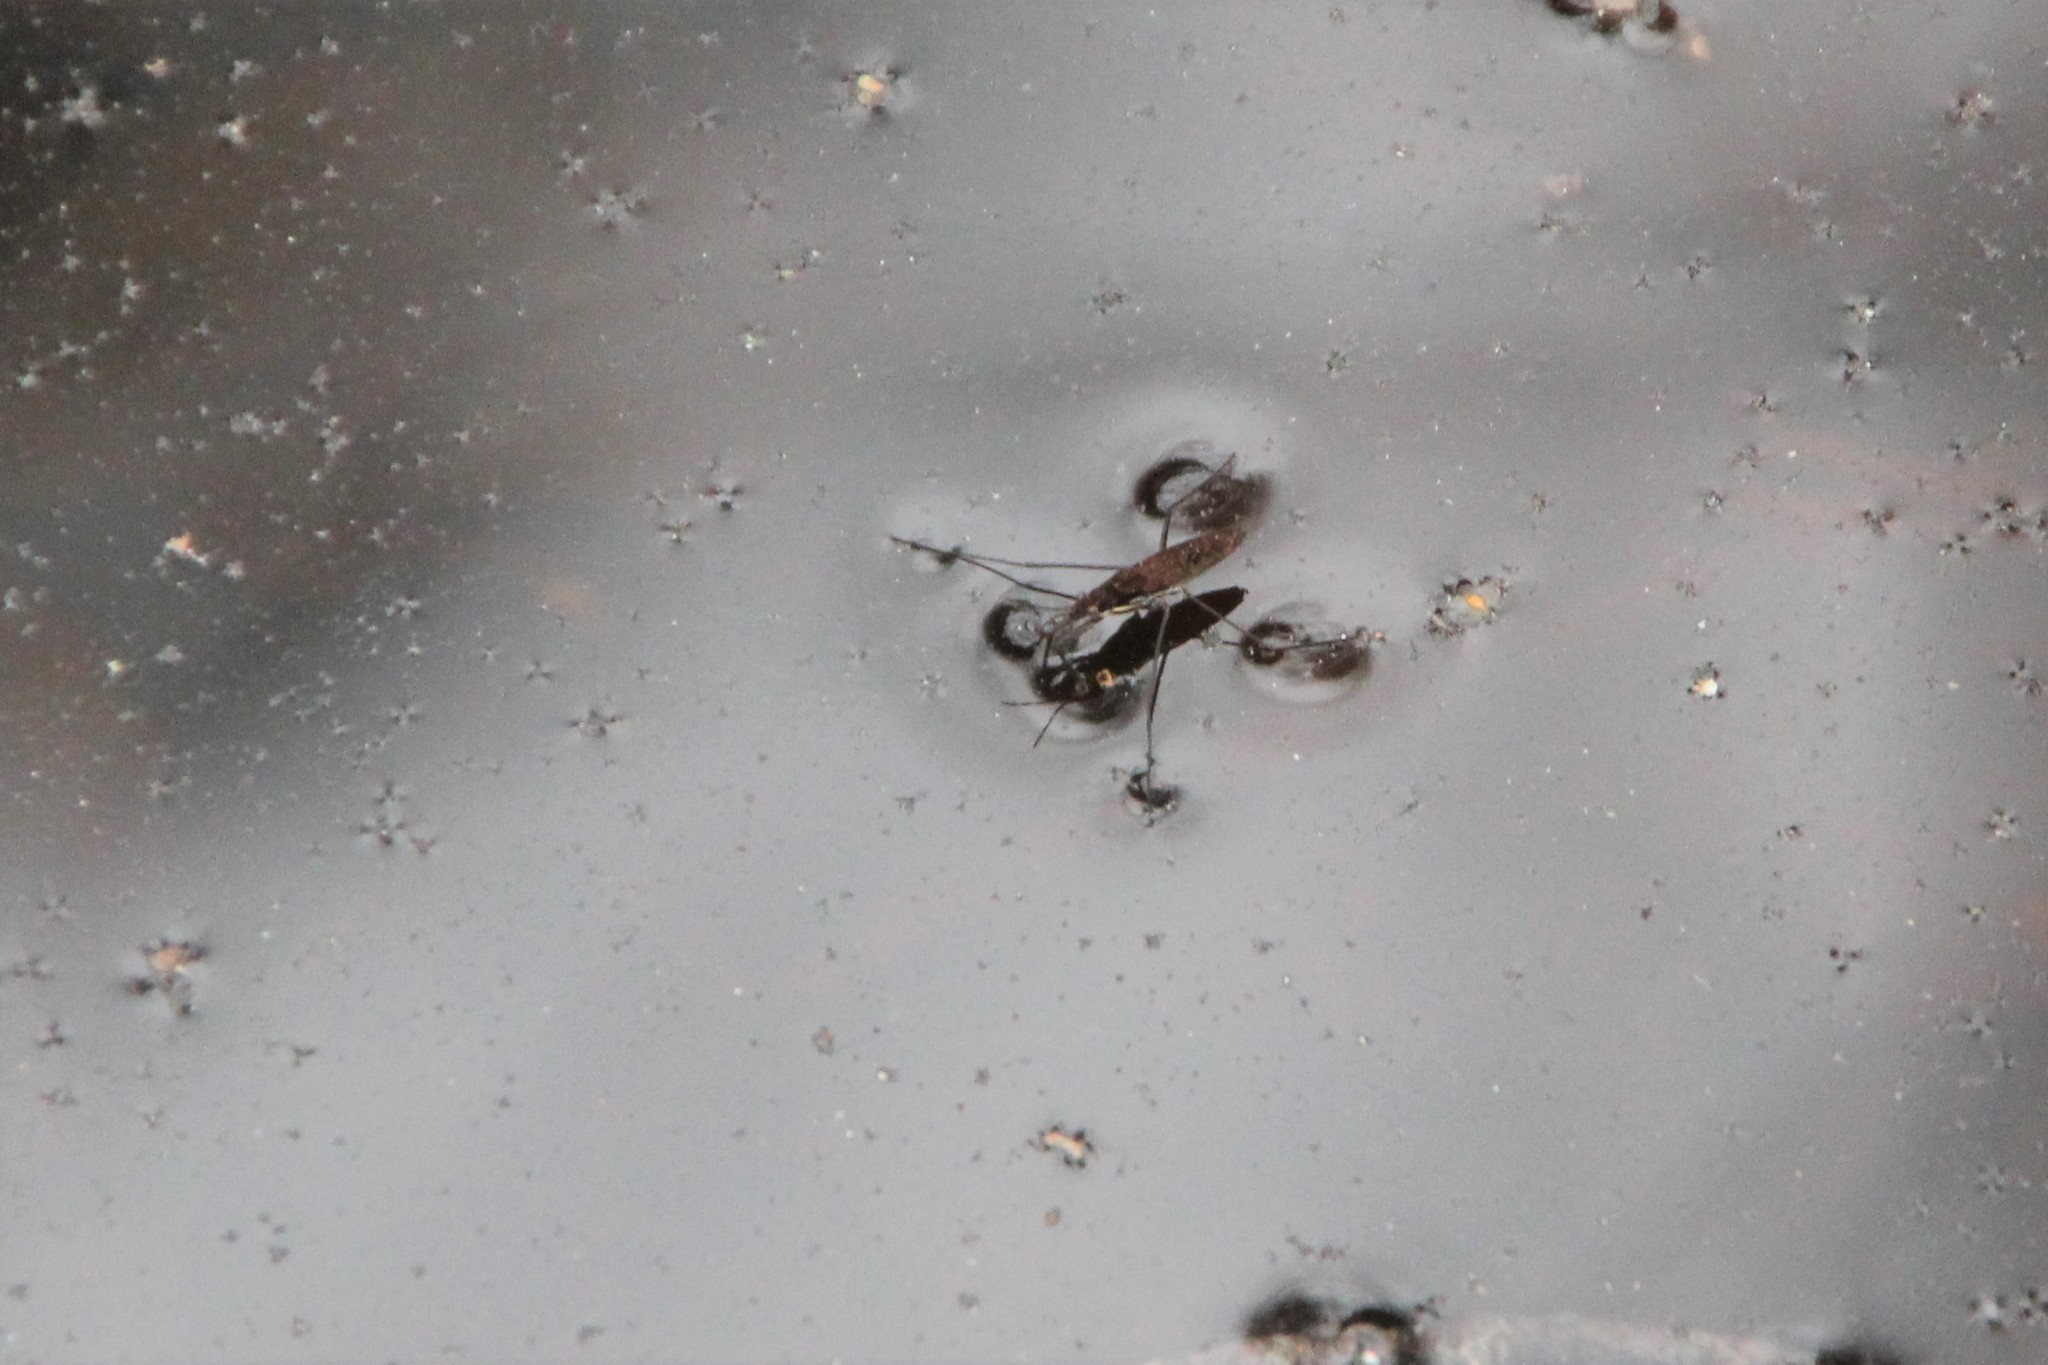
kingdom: Animalia
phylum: Arthropoda
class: Insecta
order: Hemiptera
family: Gerridae
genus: Gerris
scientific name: Gerris
